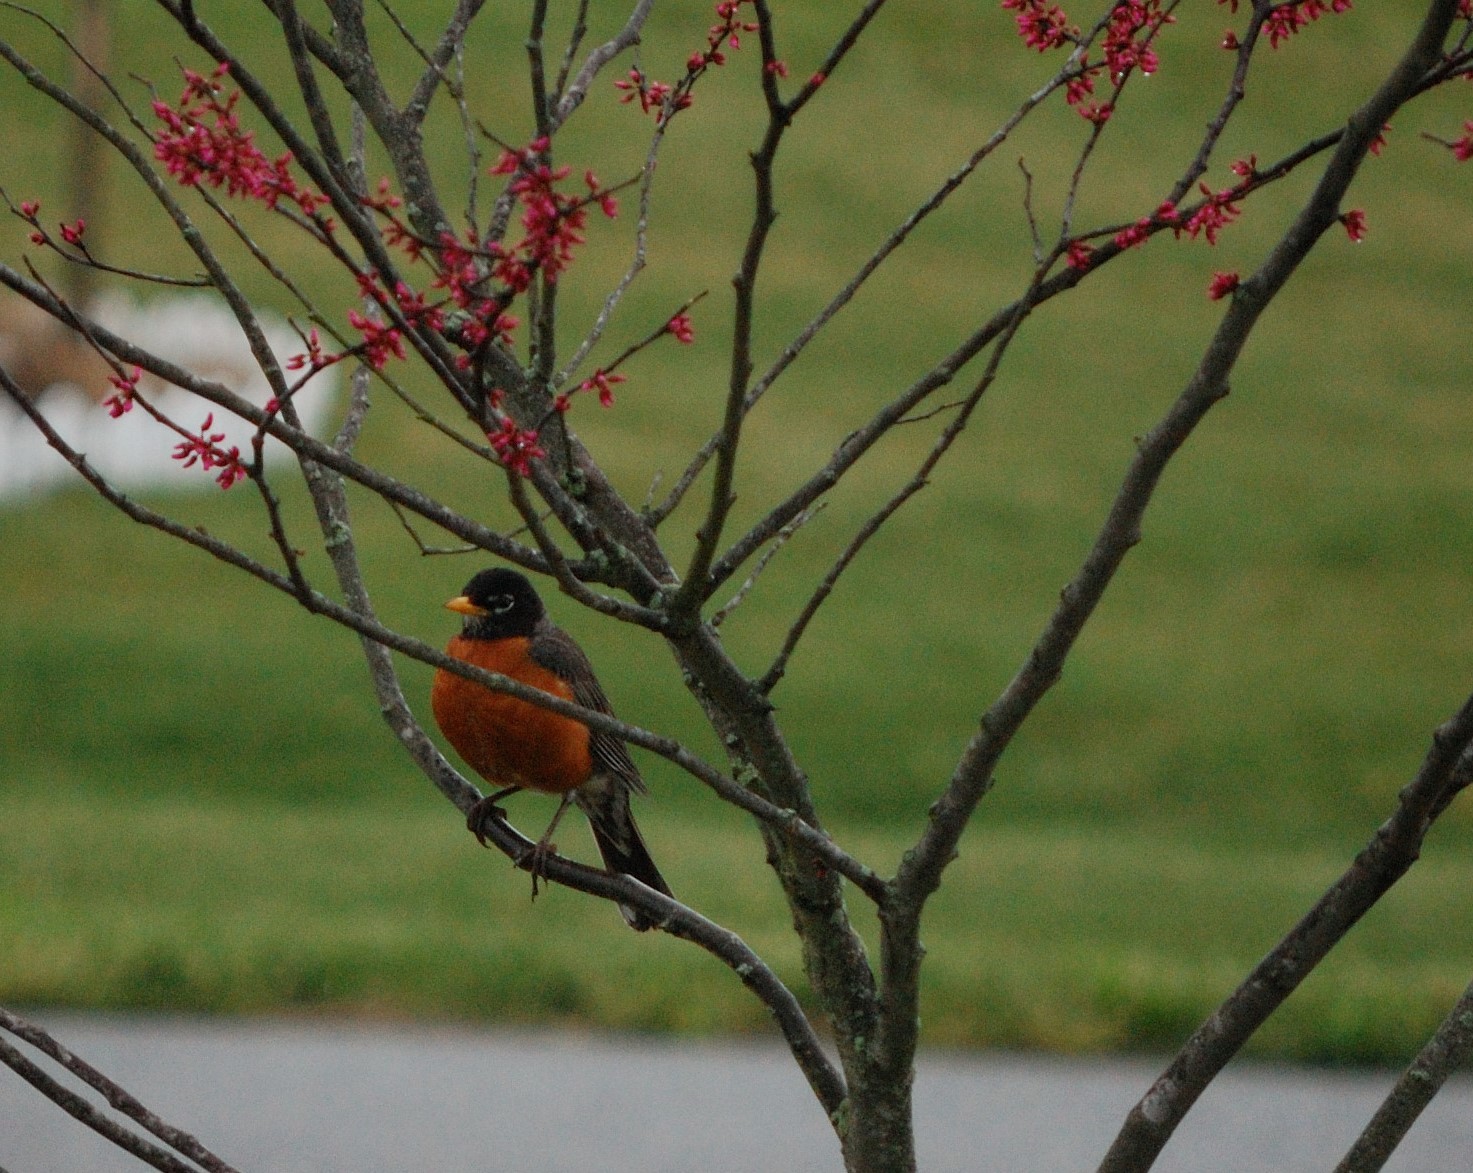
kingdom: Animalia
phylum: Chordata
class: Aves
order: Passeriformes
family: Turdidae
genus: Turdus
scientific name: Turdus migratorius
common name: American robin
